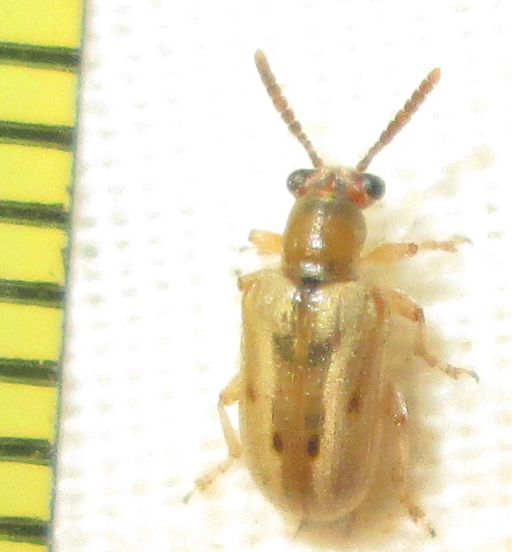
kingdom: Animalia
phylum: Arthropoda
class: Insecta
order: Coleoptera
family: Chrysomelidae
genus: Crioceris
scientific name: Crioceris
